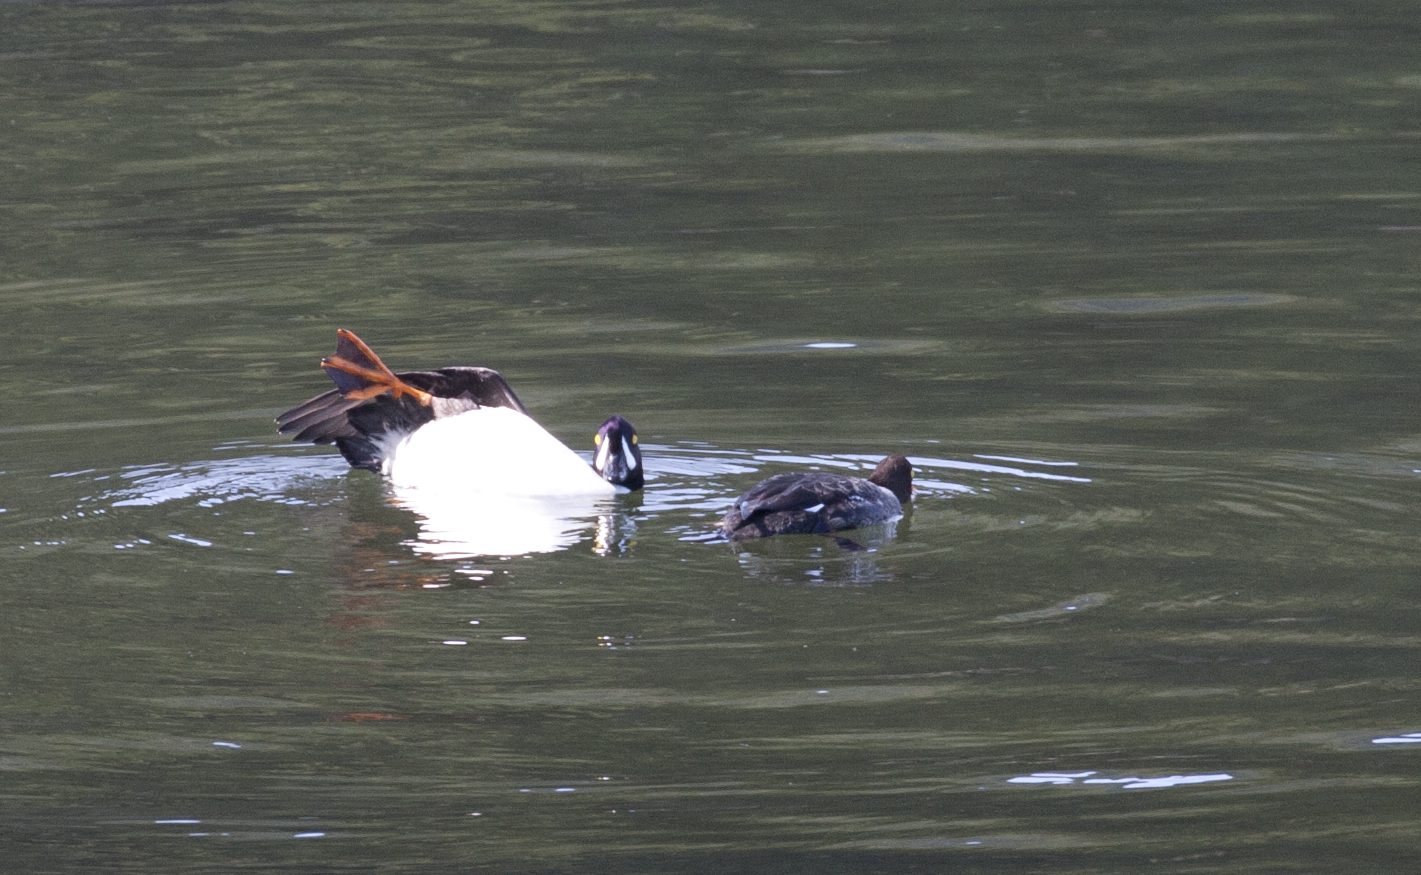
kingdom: Animalia
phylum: Chordata
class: Aves
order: Anseriformes
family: Anatidae
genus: Bucephala
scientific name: Bucephala islandica
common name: Barrow's goldeneye
